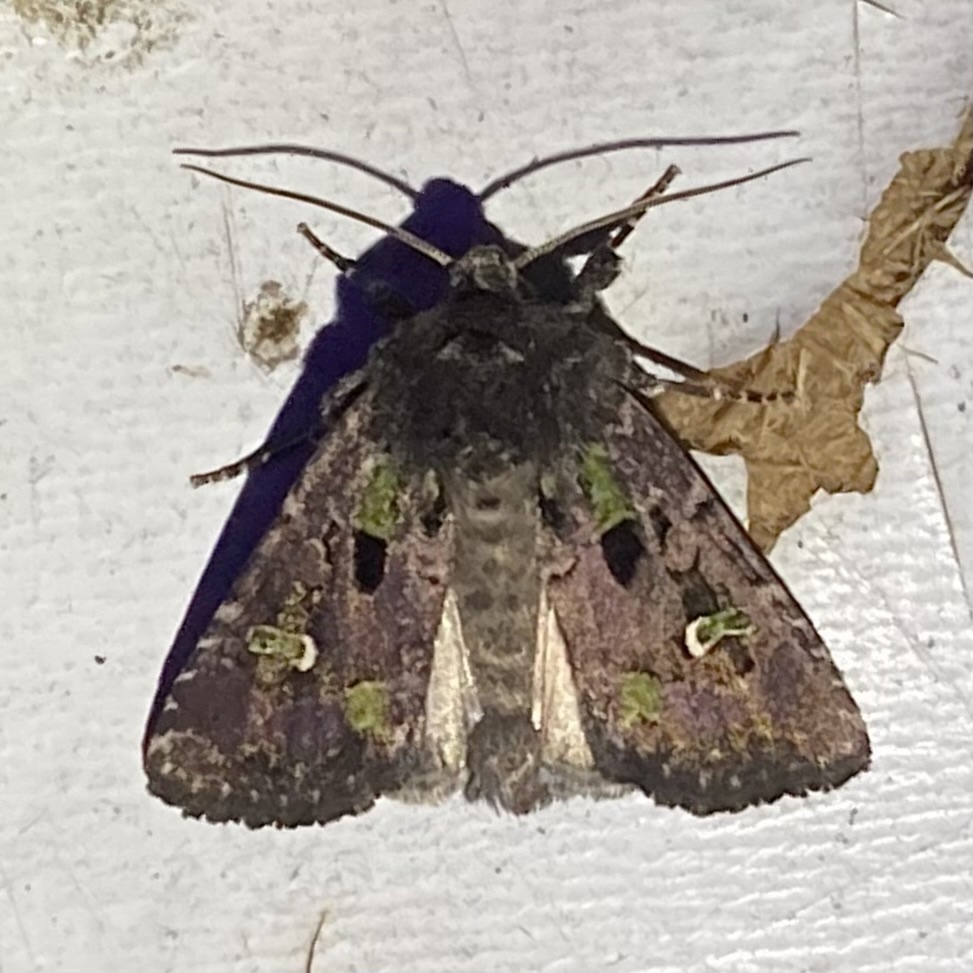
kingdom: Animalia
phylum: Arthropoda
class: Insecta
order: Lepidoptera
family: Noctuidae
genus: Lacinipolia
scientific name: Lacinipolia renigera
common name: Kidney-spotted minor
